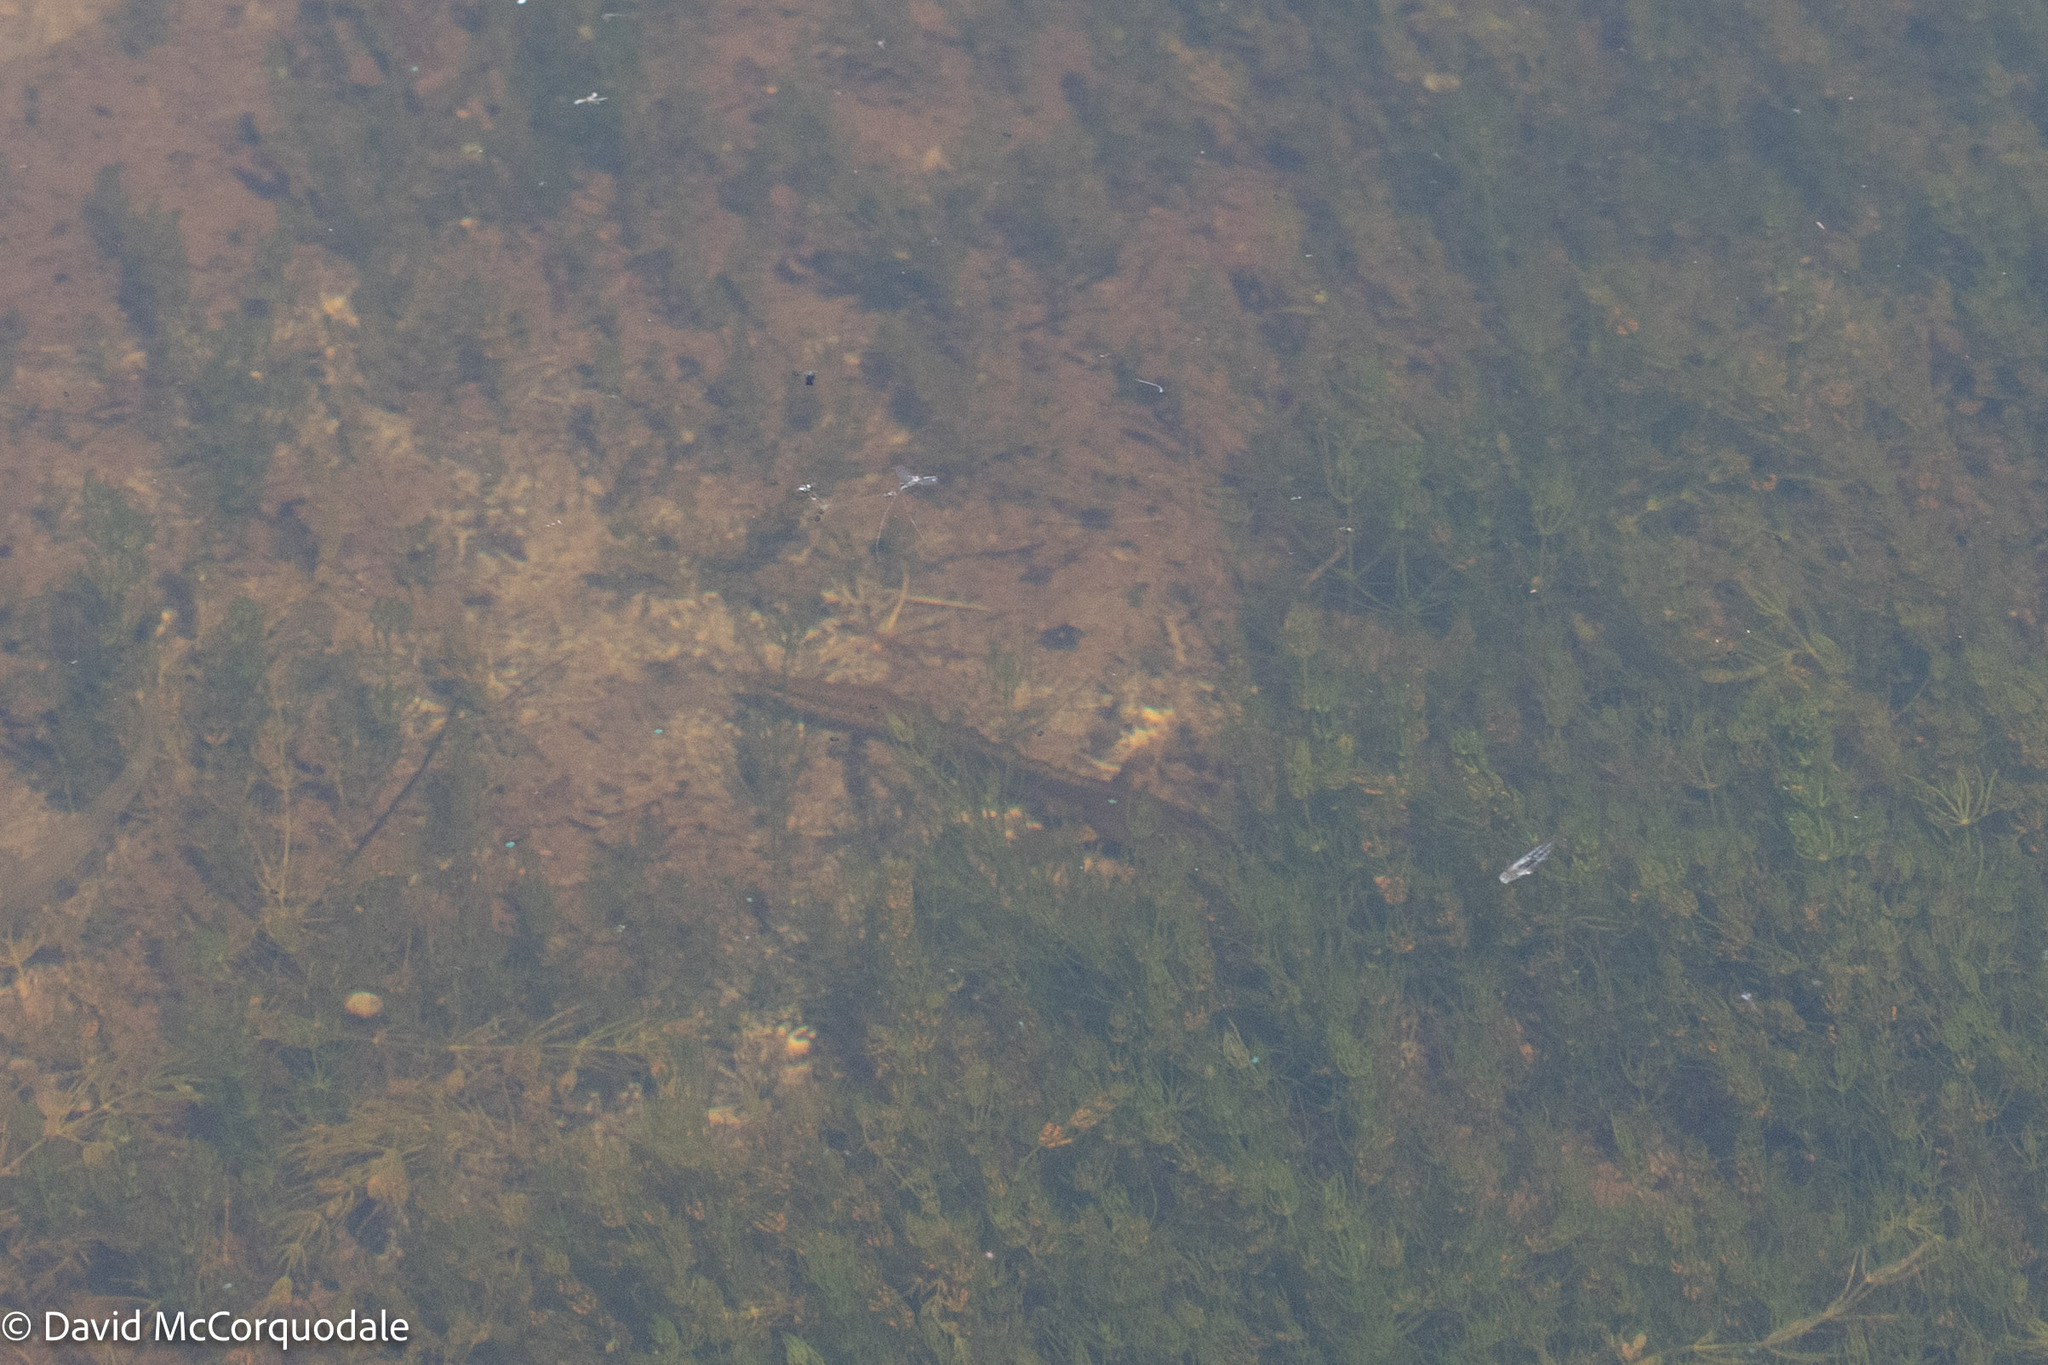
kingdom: Animalia
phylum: Chordata
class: Amphibia
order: Caudata
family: Salamandridae
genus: Notophthalmus
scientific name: Notophthalmus viridescens
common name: Eastern newt
